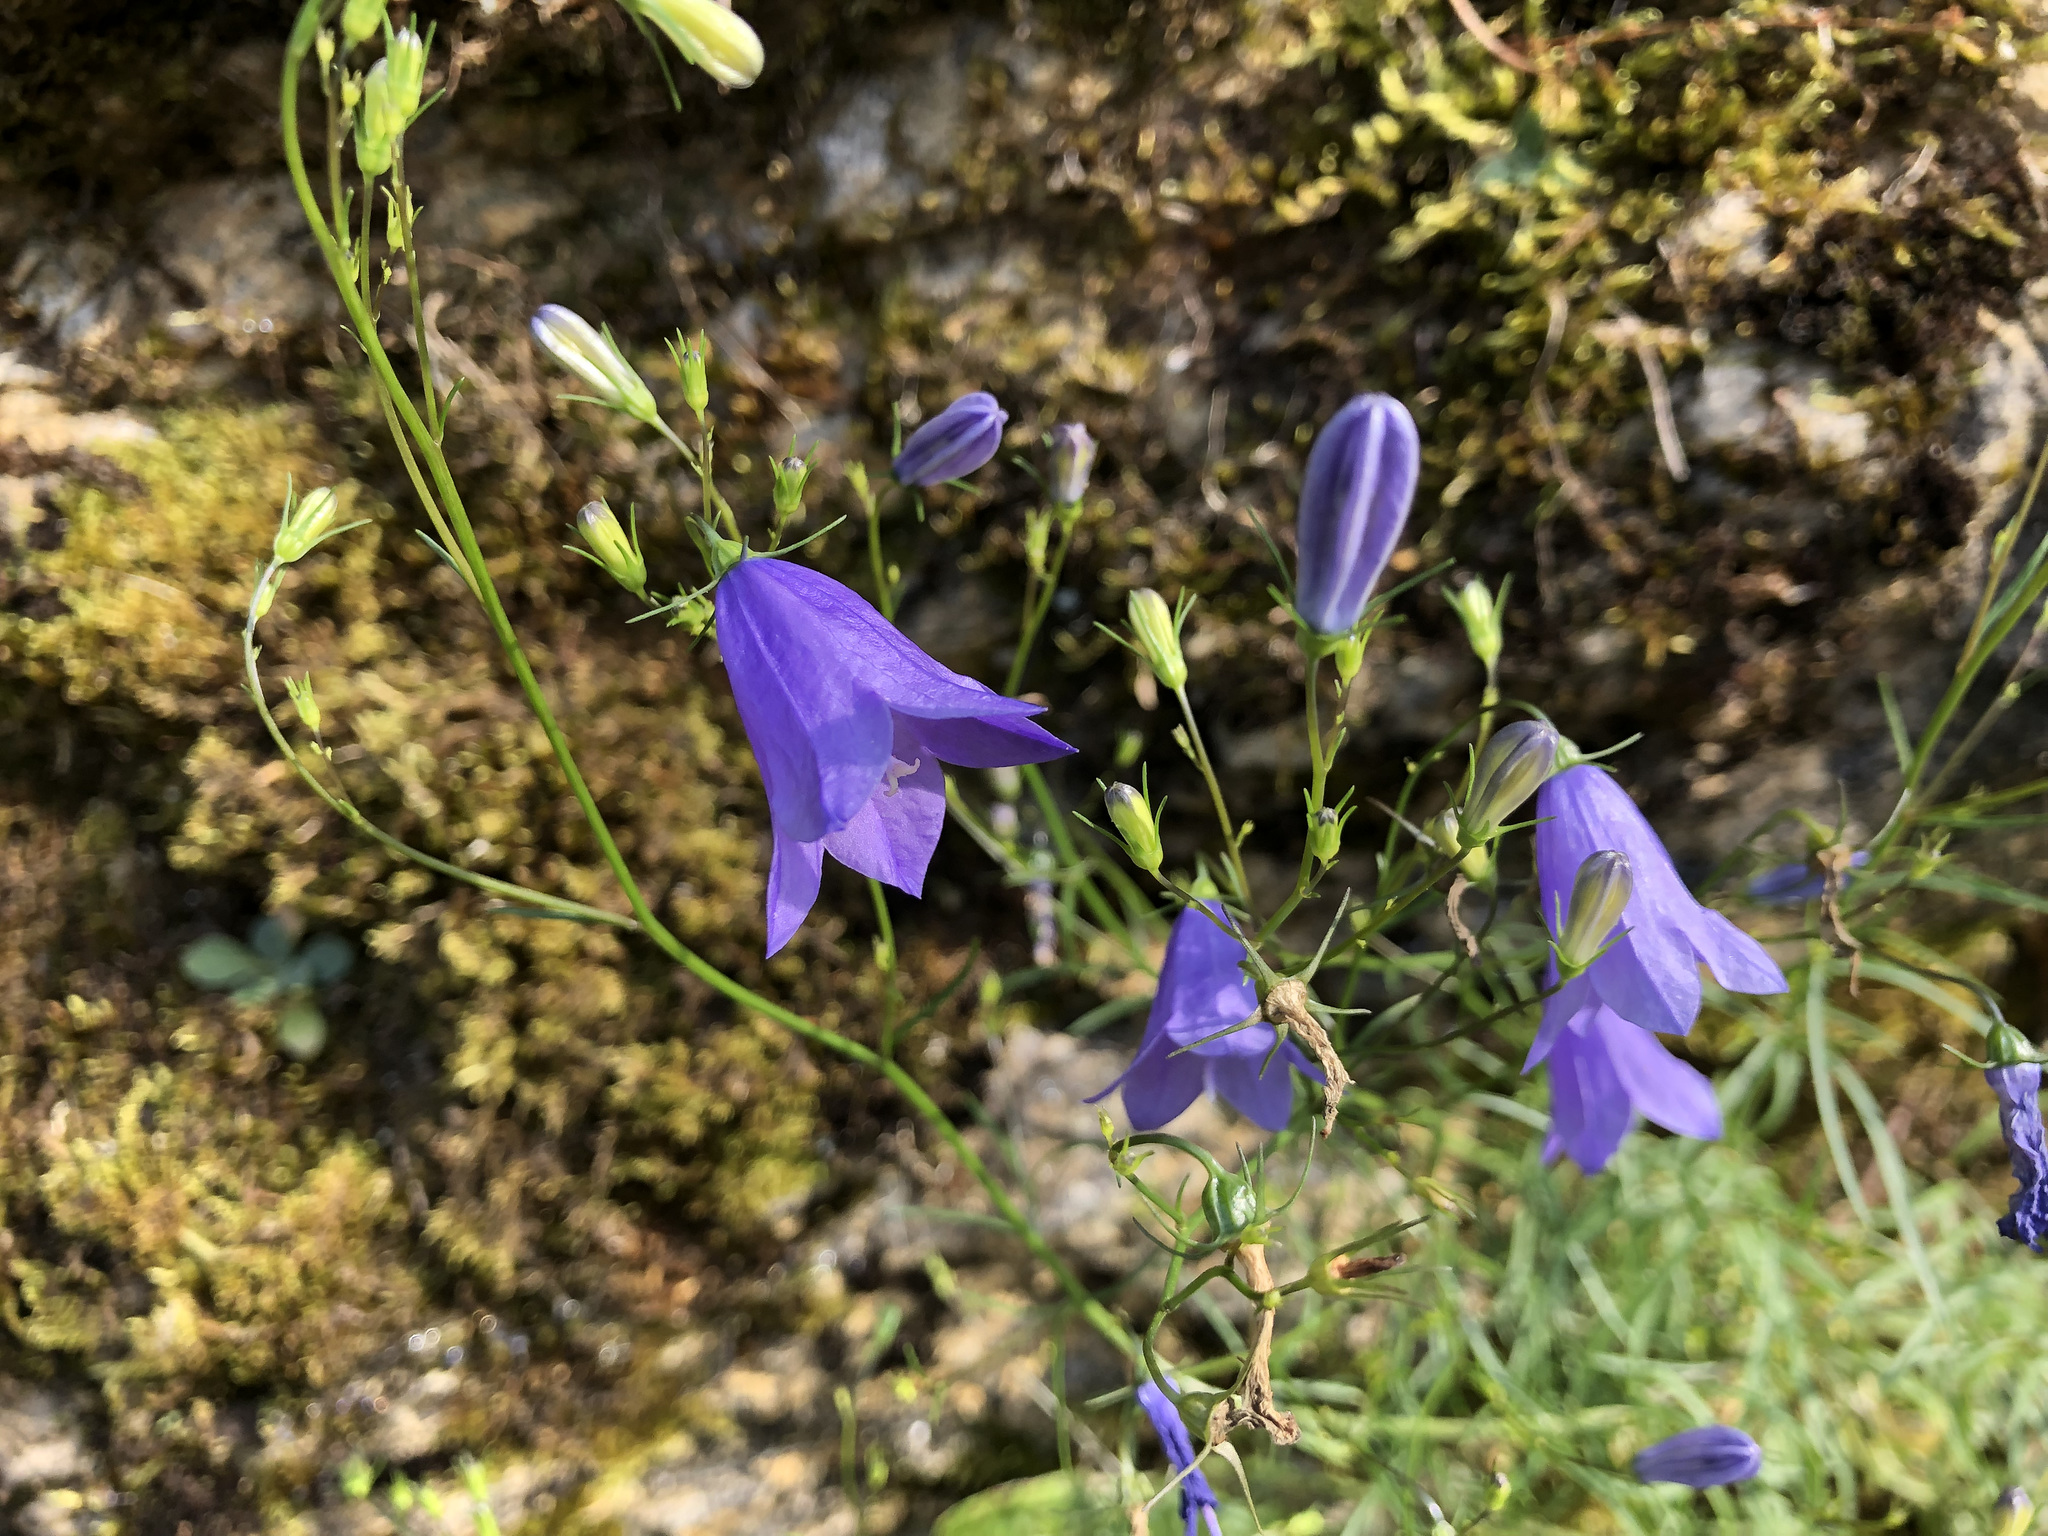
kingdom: Plantae
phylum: Tracheophyta
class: Magnoliopsida
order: Asterales
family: Campanulaceae
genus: Campanula
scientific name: Campanula rotundifolia
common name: Harebell
